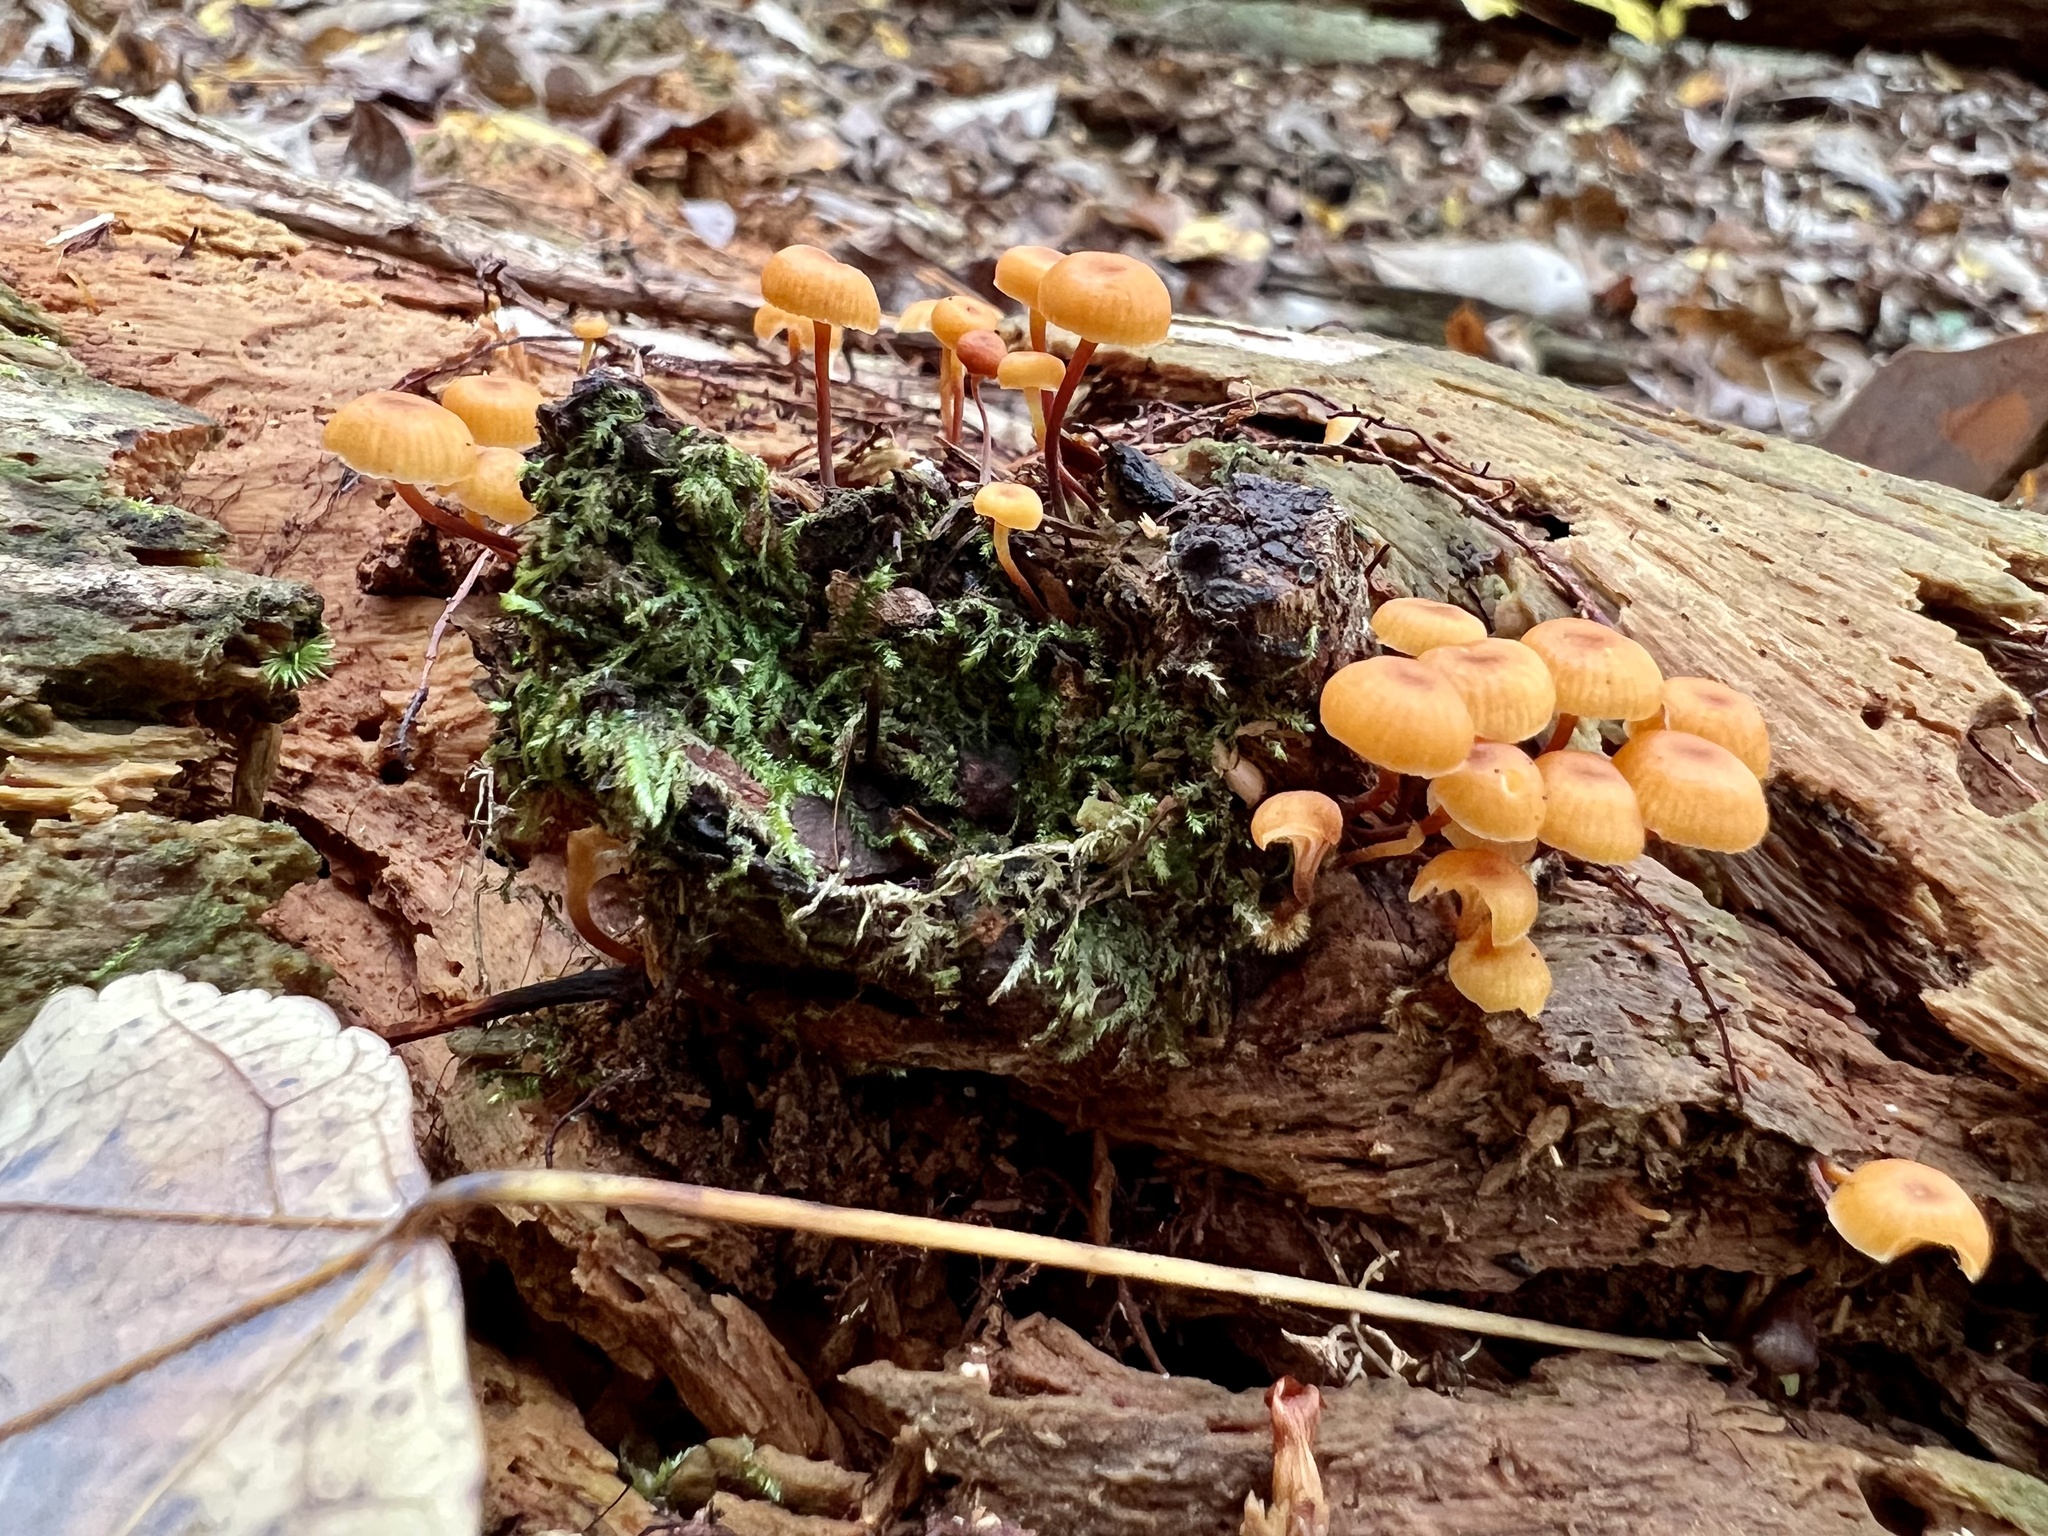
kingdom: Fungi
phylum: Basidiomycota
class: Agaricomycetes
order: Agaricales
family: Mycenaceae
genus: Xeromphalina
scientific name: Xeromphalina campanella
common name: Pinewood gingertail
